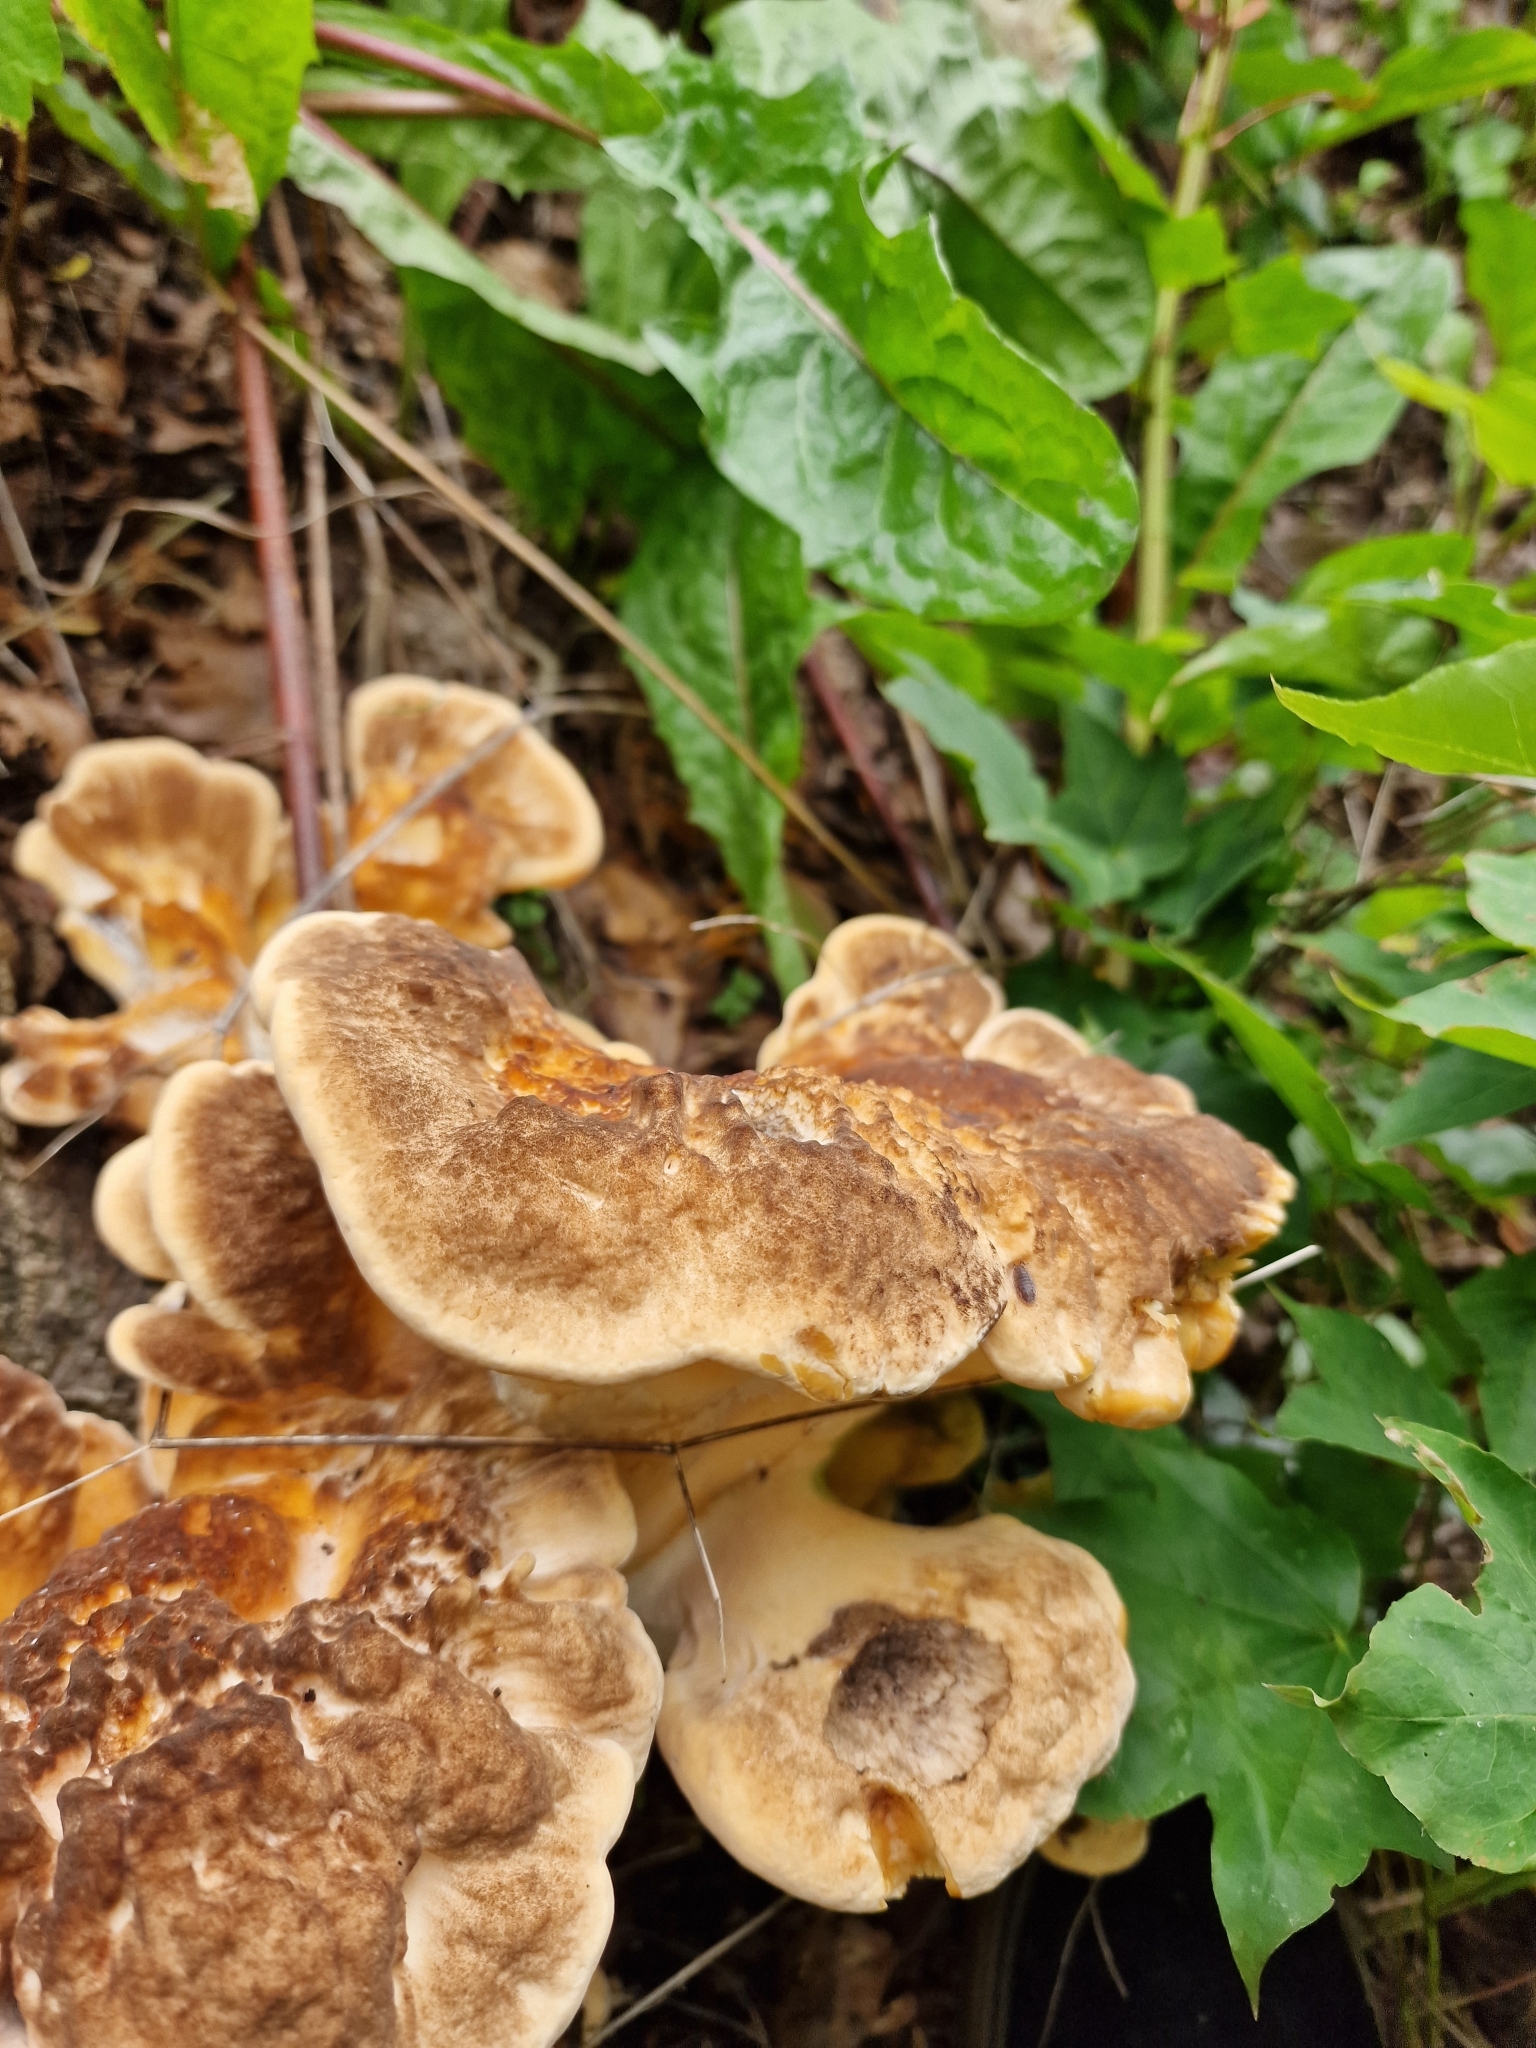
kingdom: Fungi
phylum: Basidiomycota
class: Agaricomycetes
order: Polyporales
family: Meripilaceae
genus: Meripilus
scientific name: Meripilus giganteus
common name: Giant polypore
